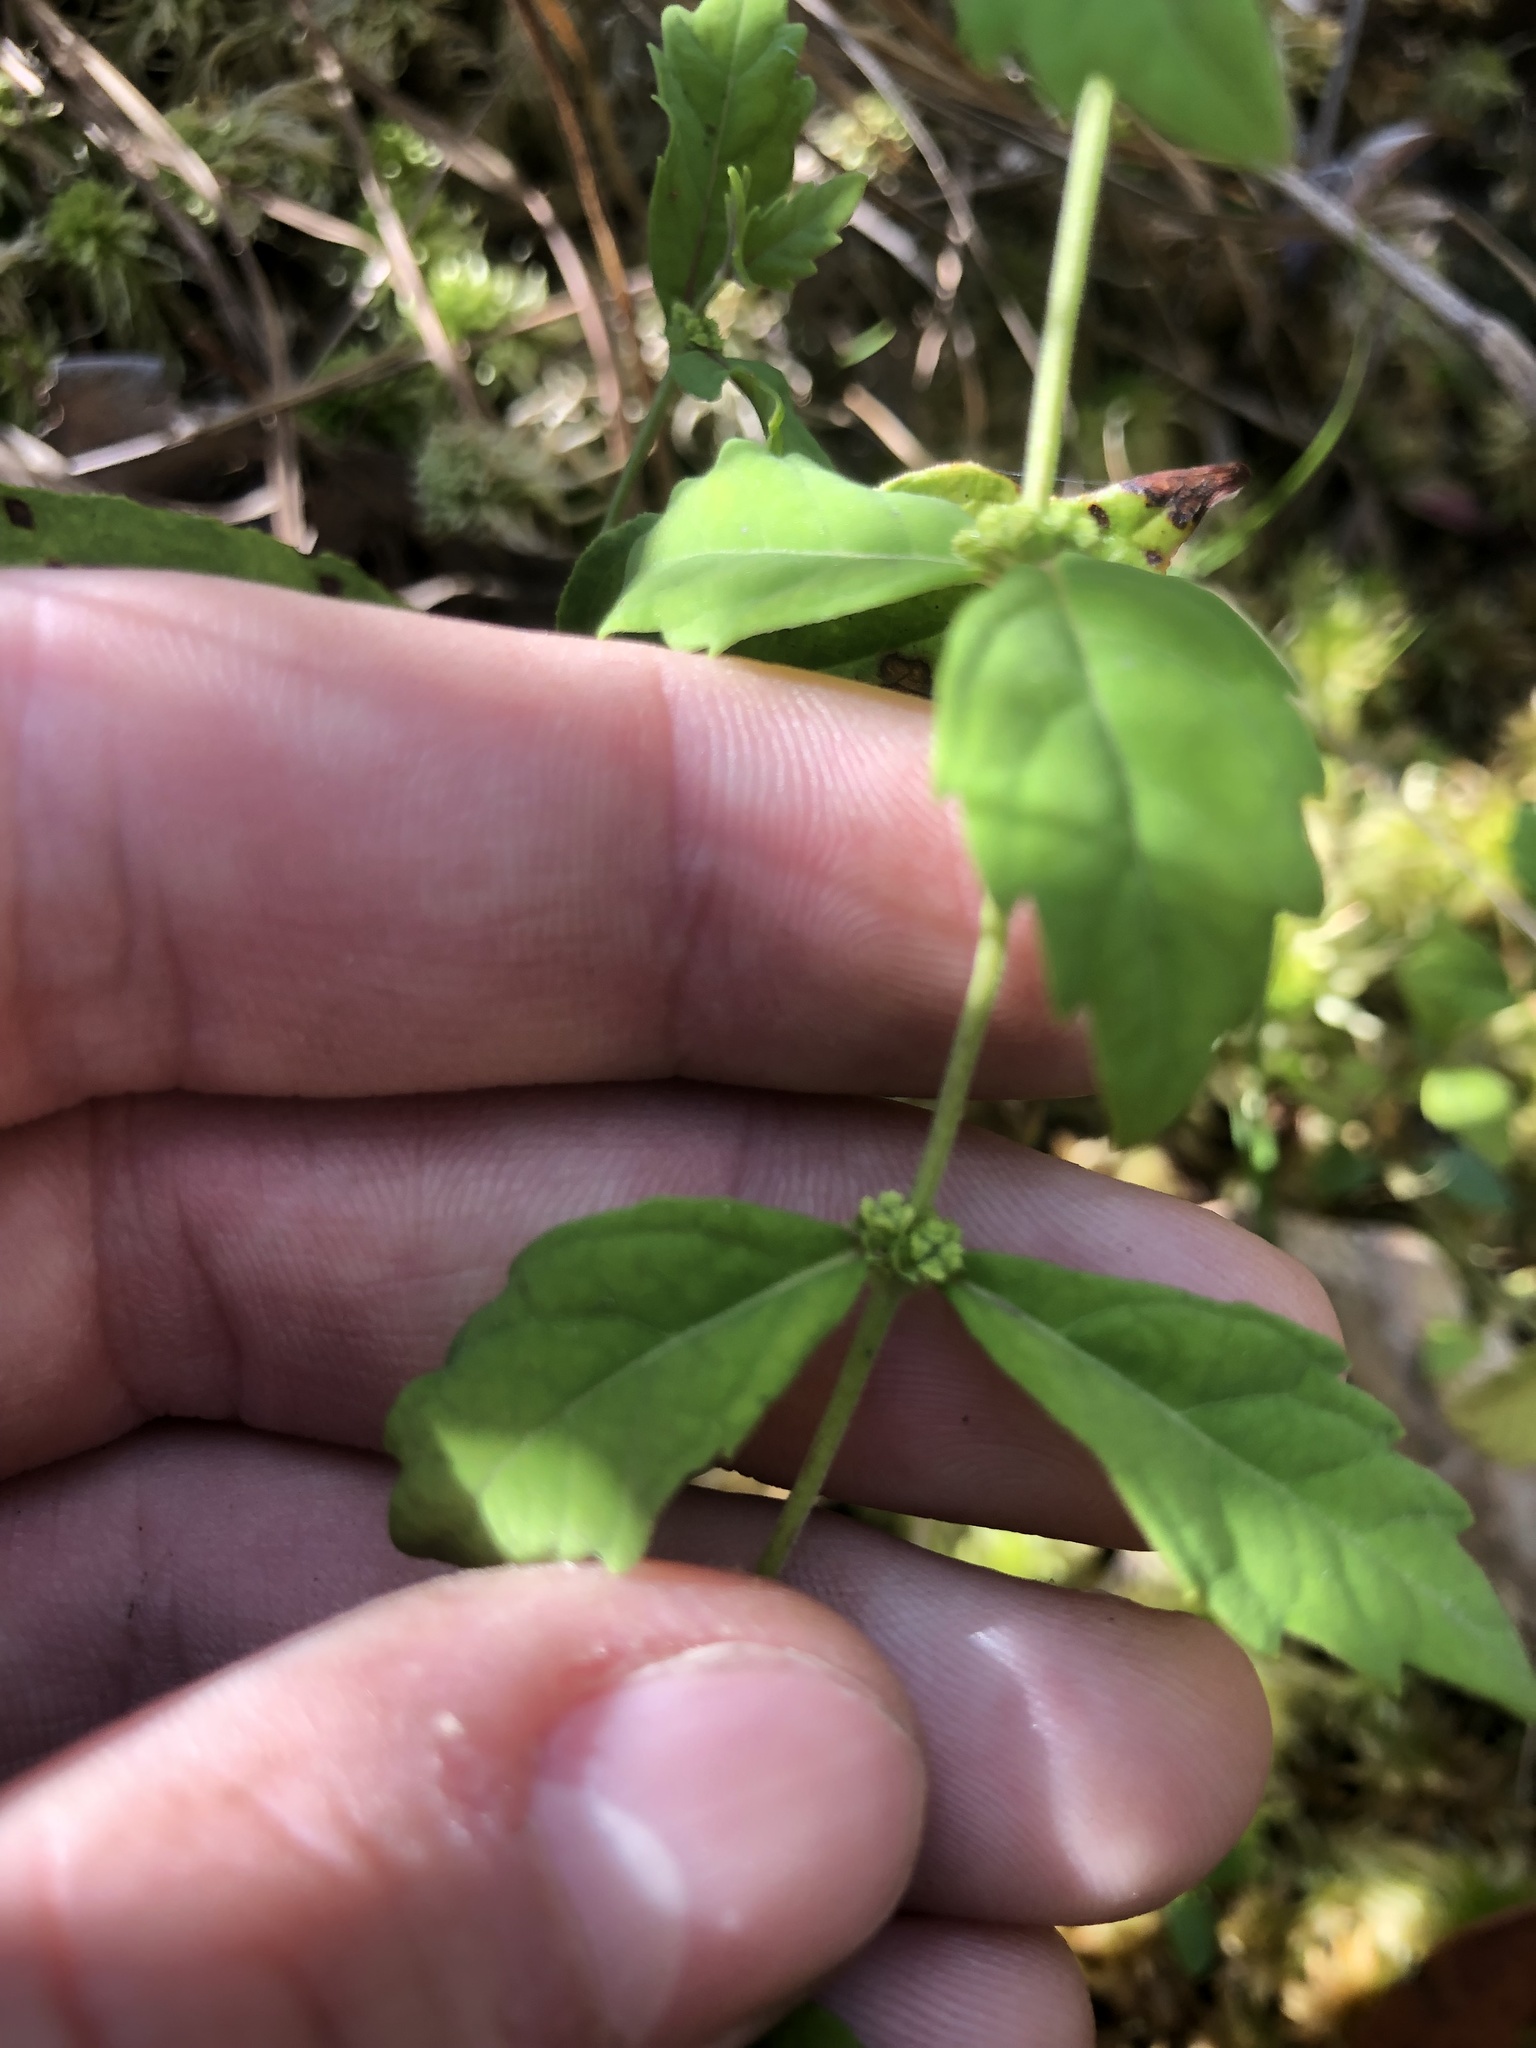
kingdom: Plantae
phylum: Tracheophyta
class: Magnoliopsida
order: Lamiales
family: Lamiaceae
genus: Lycopus
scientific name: Lycopus cokeri
